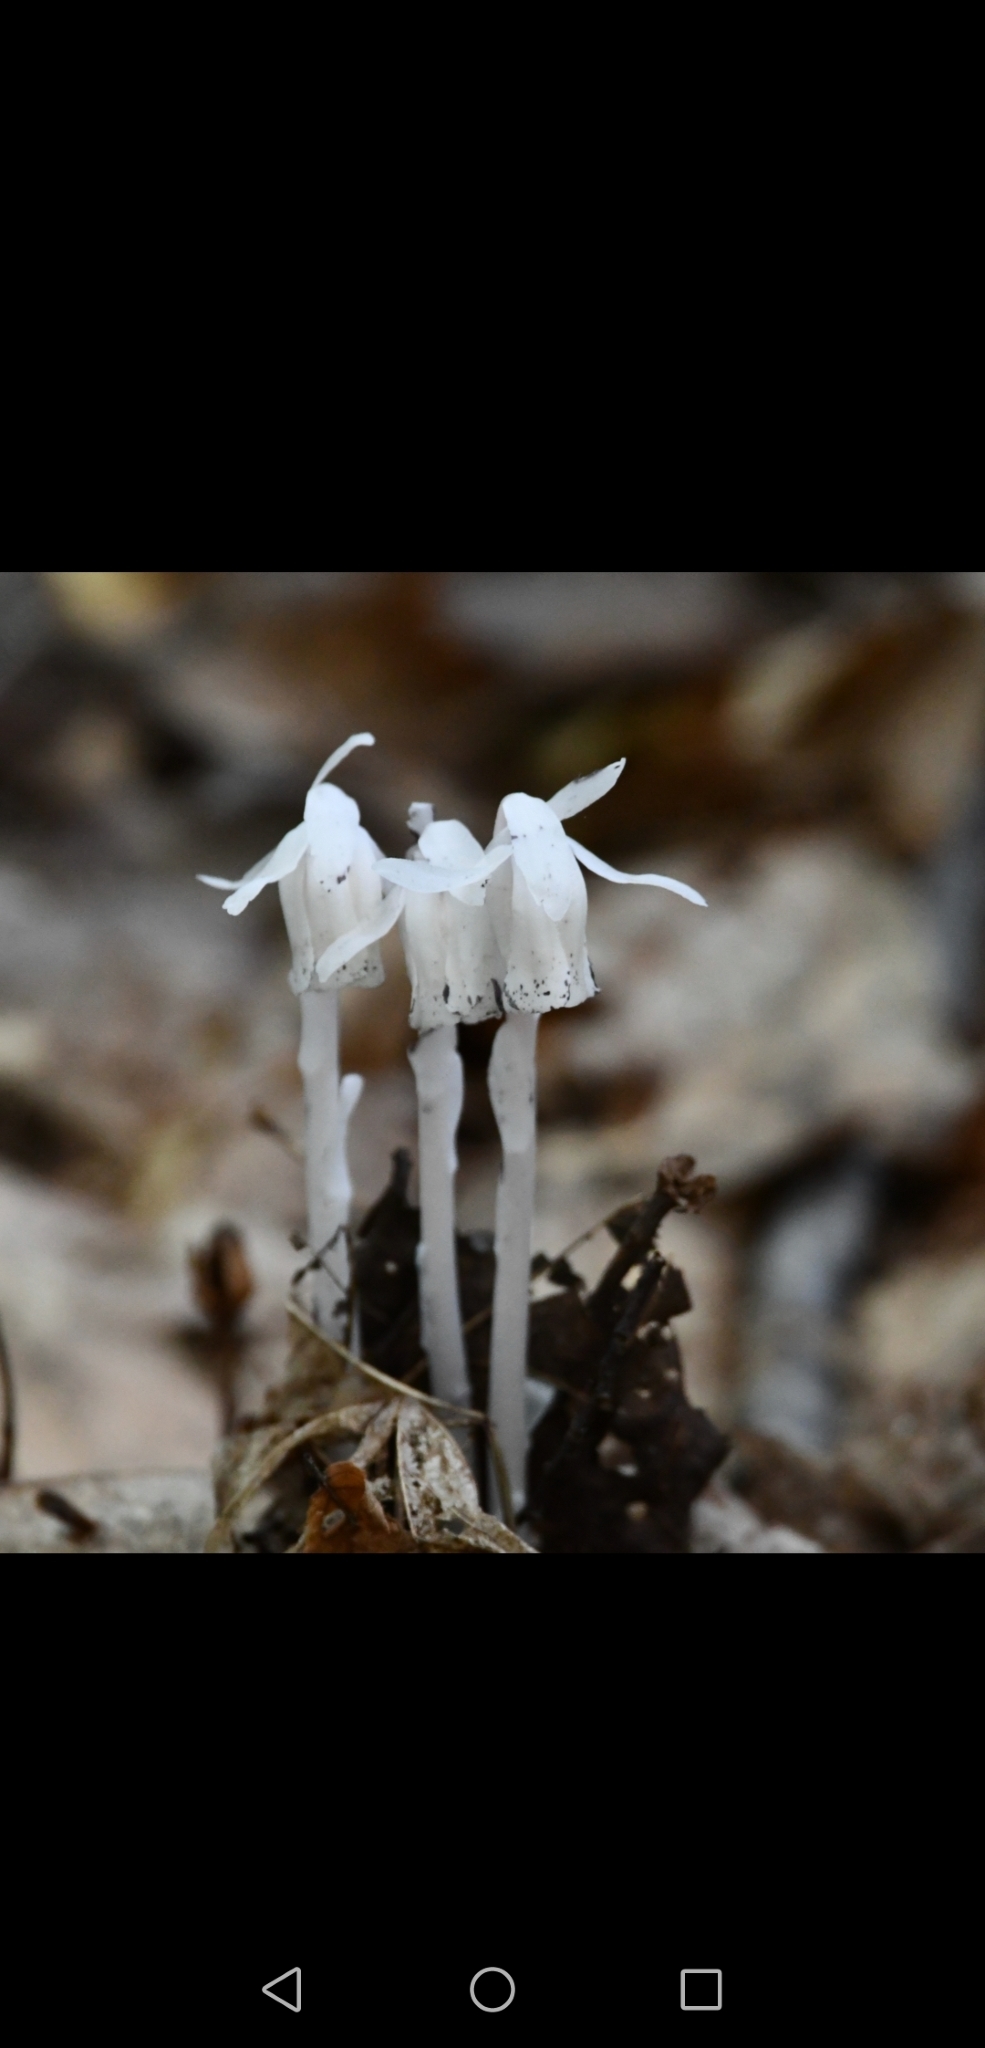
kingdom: Plantae
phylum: Tracheophyta
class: Magnoliopsida
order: Ericales
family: Ericaceae
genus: Monotropa
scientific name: Monotropa uniflora
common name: Convulsion root
